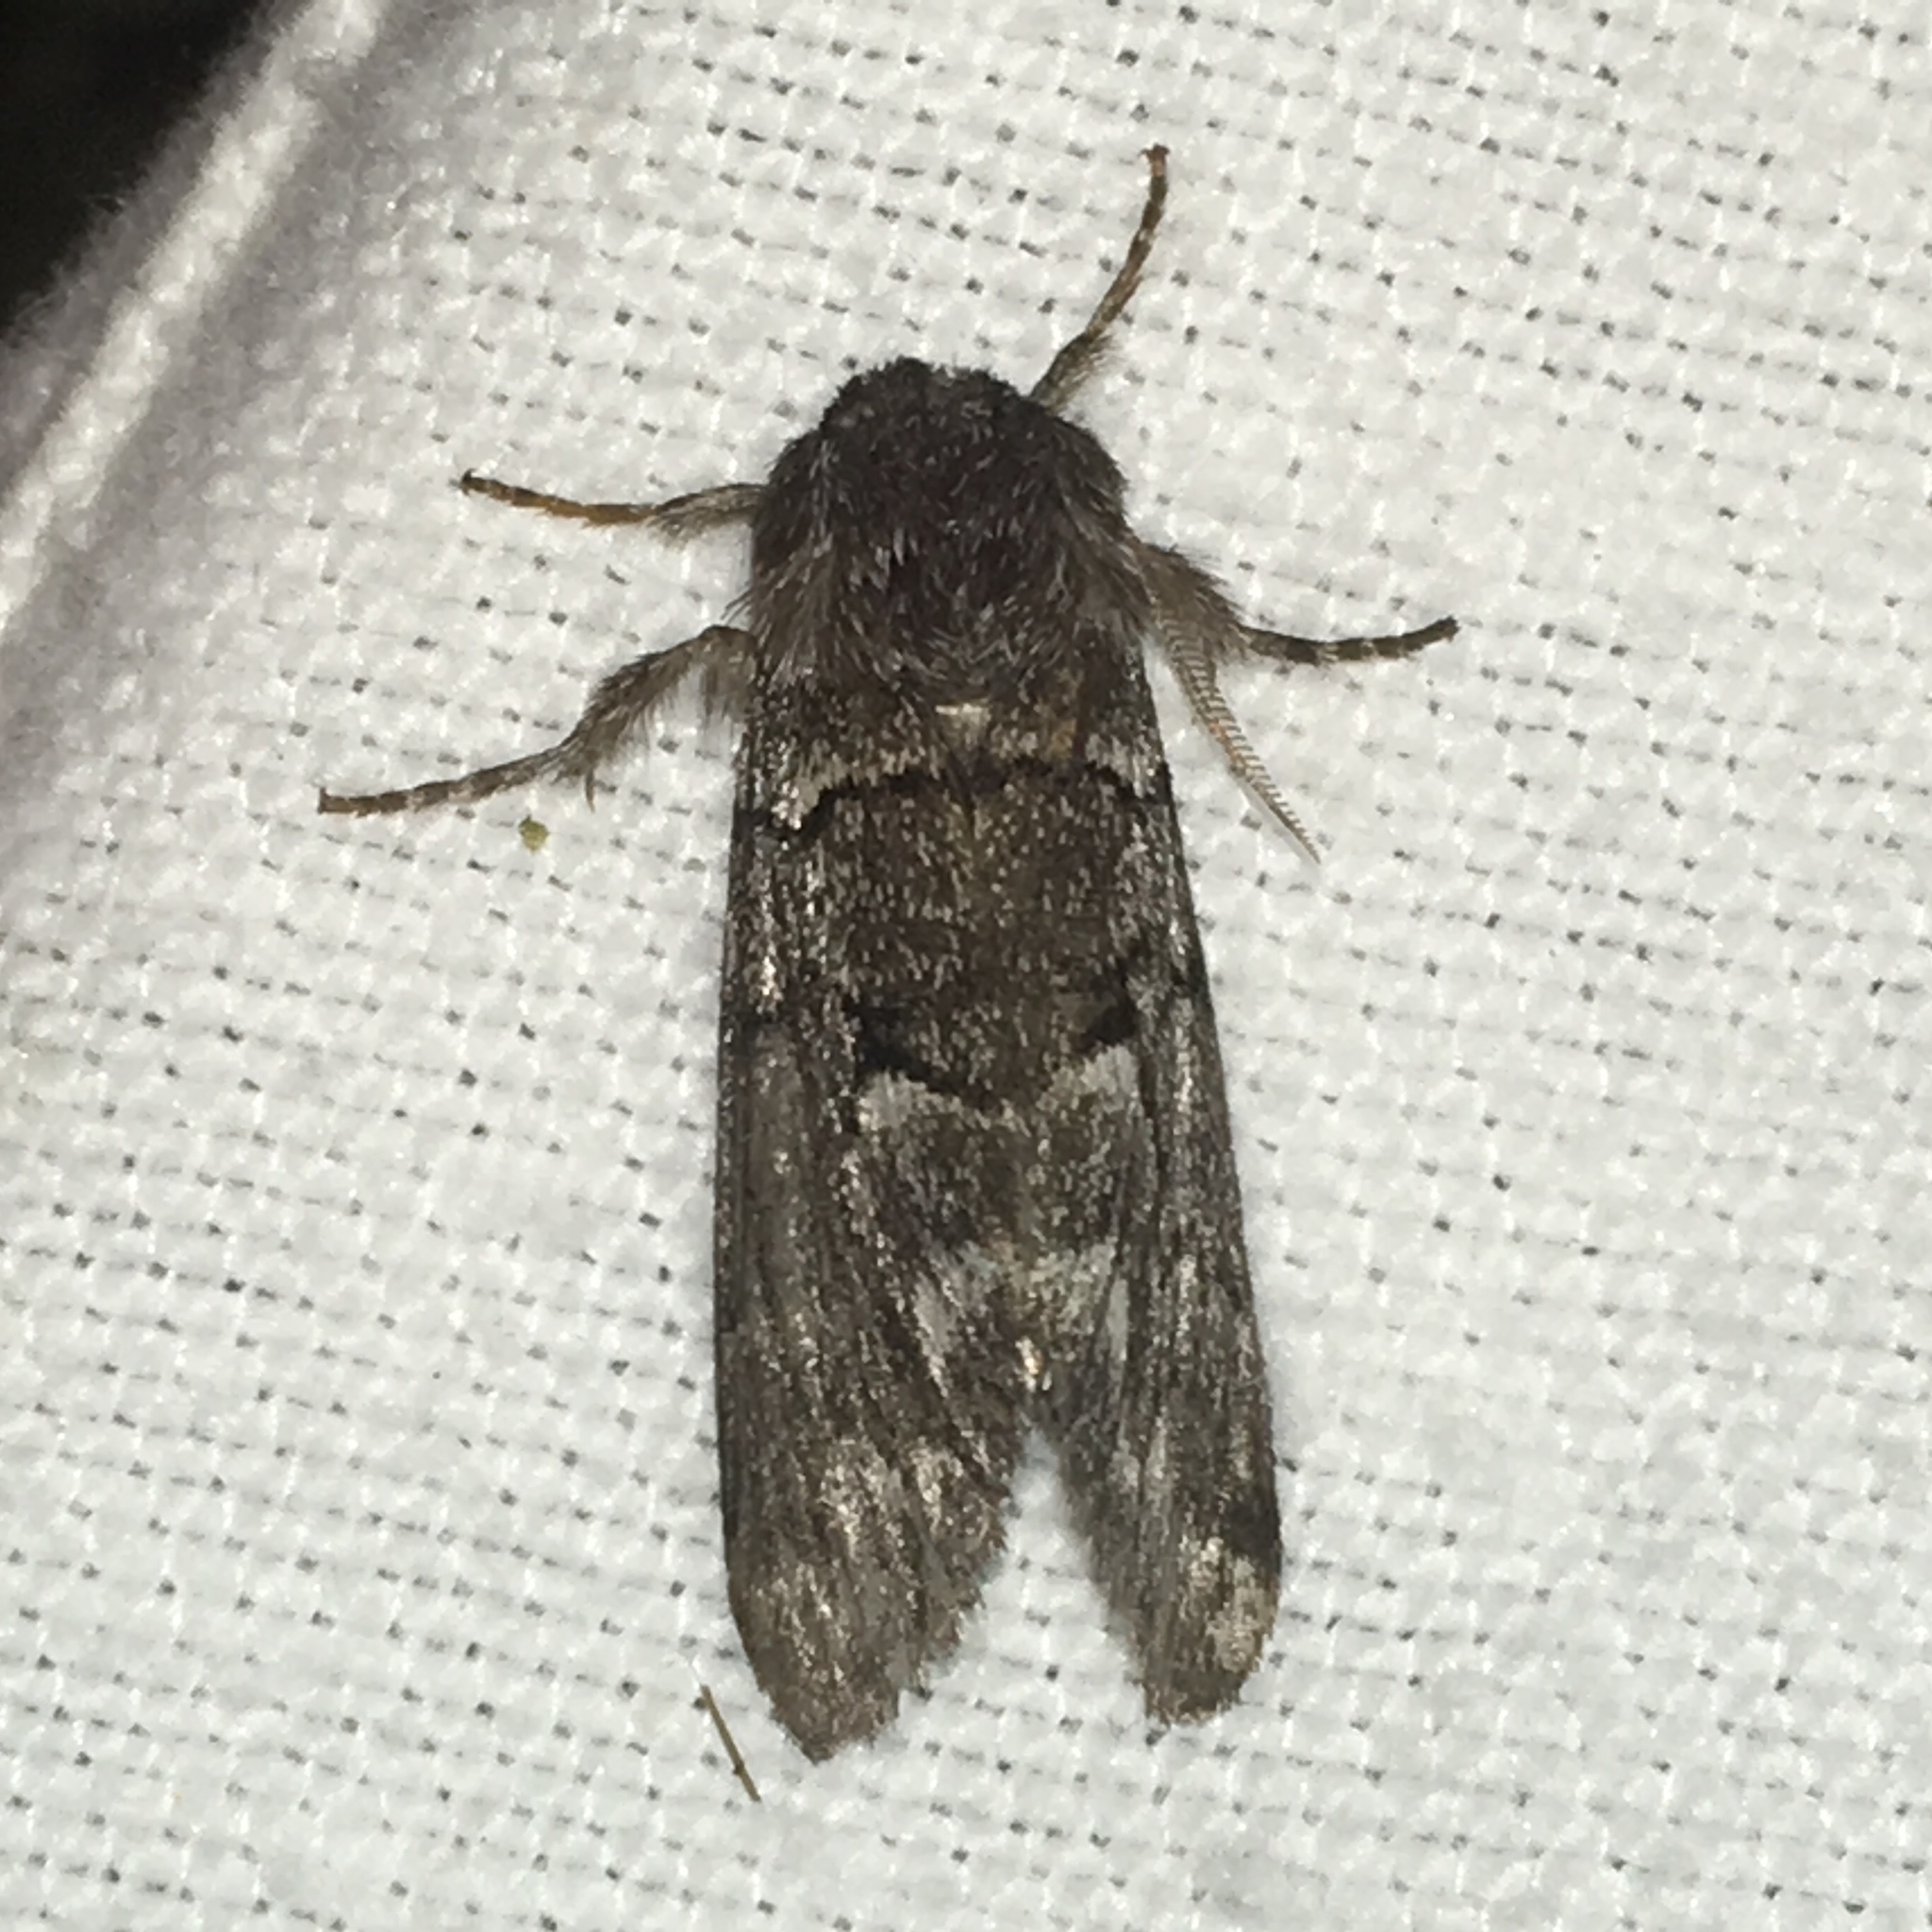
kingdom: Animalia
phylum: Arthropoda
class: Insecta
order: Lepidoptera
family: Noctuidae
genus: Panthea
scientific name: Panthea furcilla
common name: Eastern panthea moth
